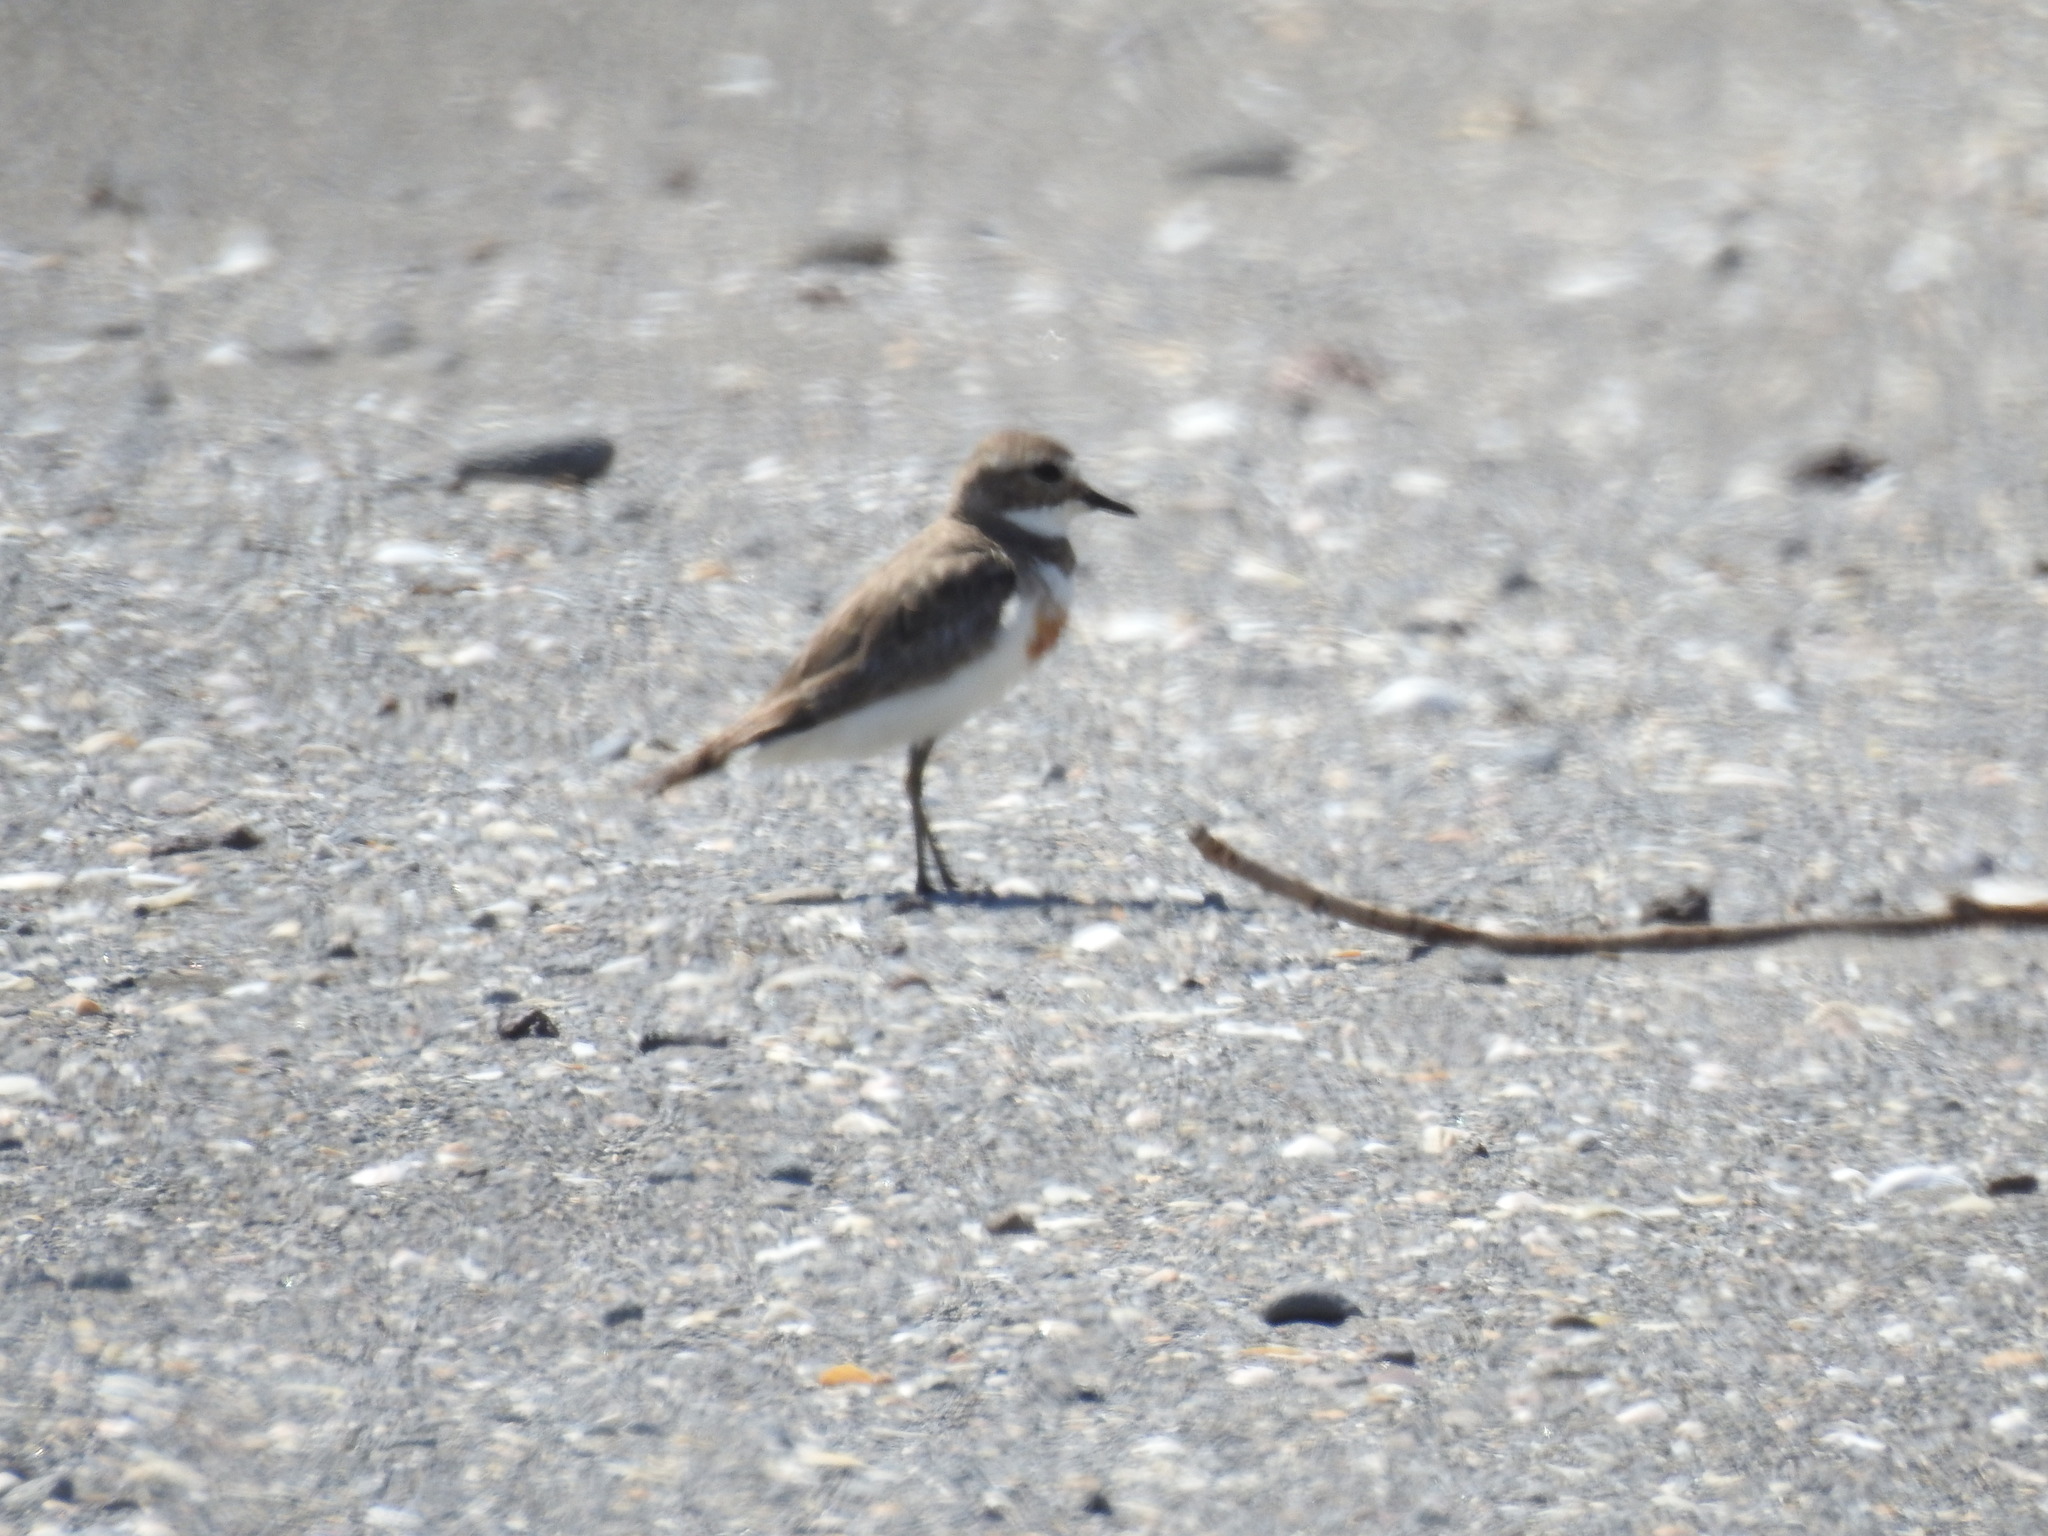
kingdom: Animalia
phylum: Chordata
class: Aves
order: Charadriiformes
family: Charadriidae
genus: Anarhynchus
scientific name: Anarhynchus
